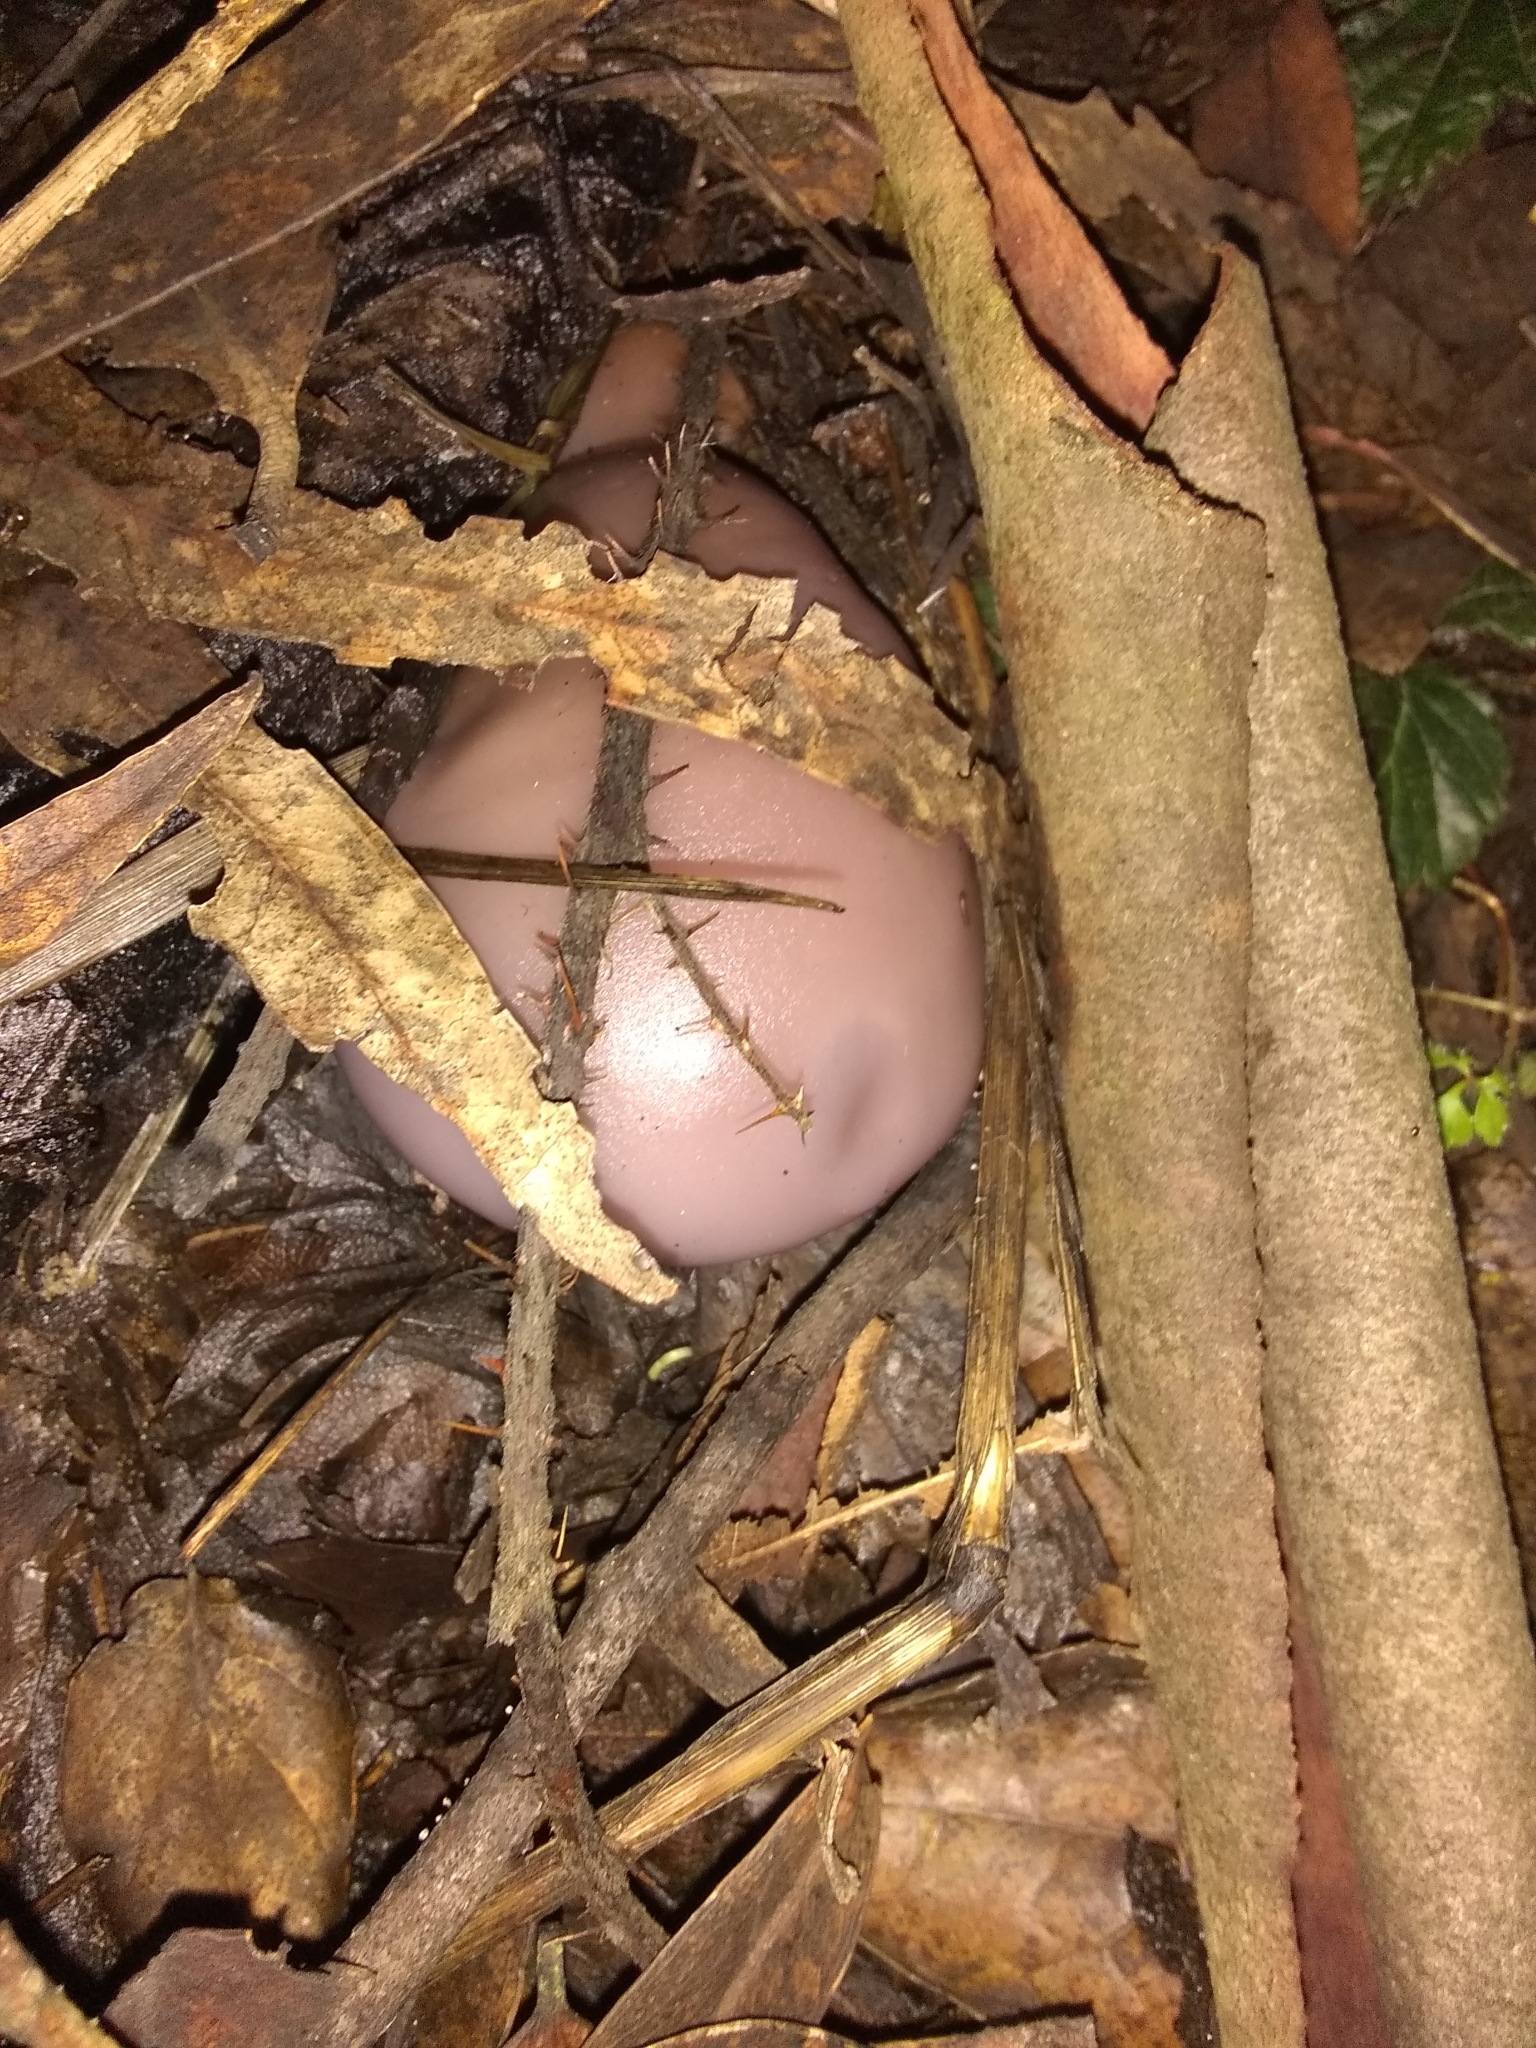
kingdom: Fungi
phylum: Basidiomycota
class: Agaricomycetes
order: Agaricales
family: Tricholomataceae
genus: Collybia
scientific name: Collybia
